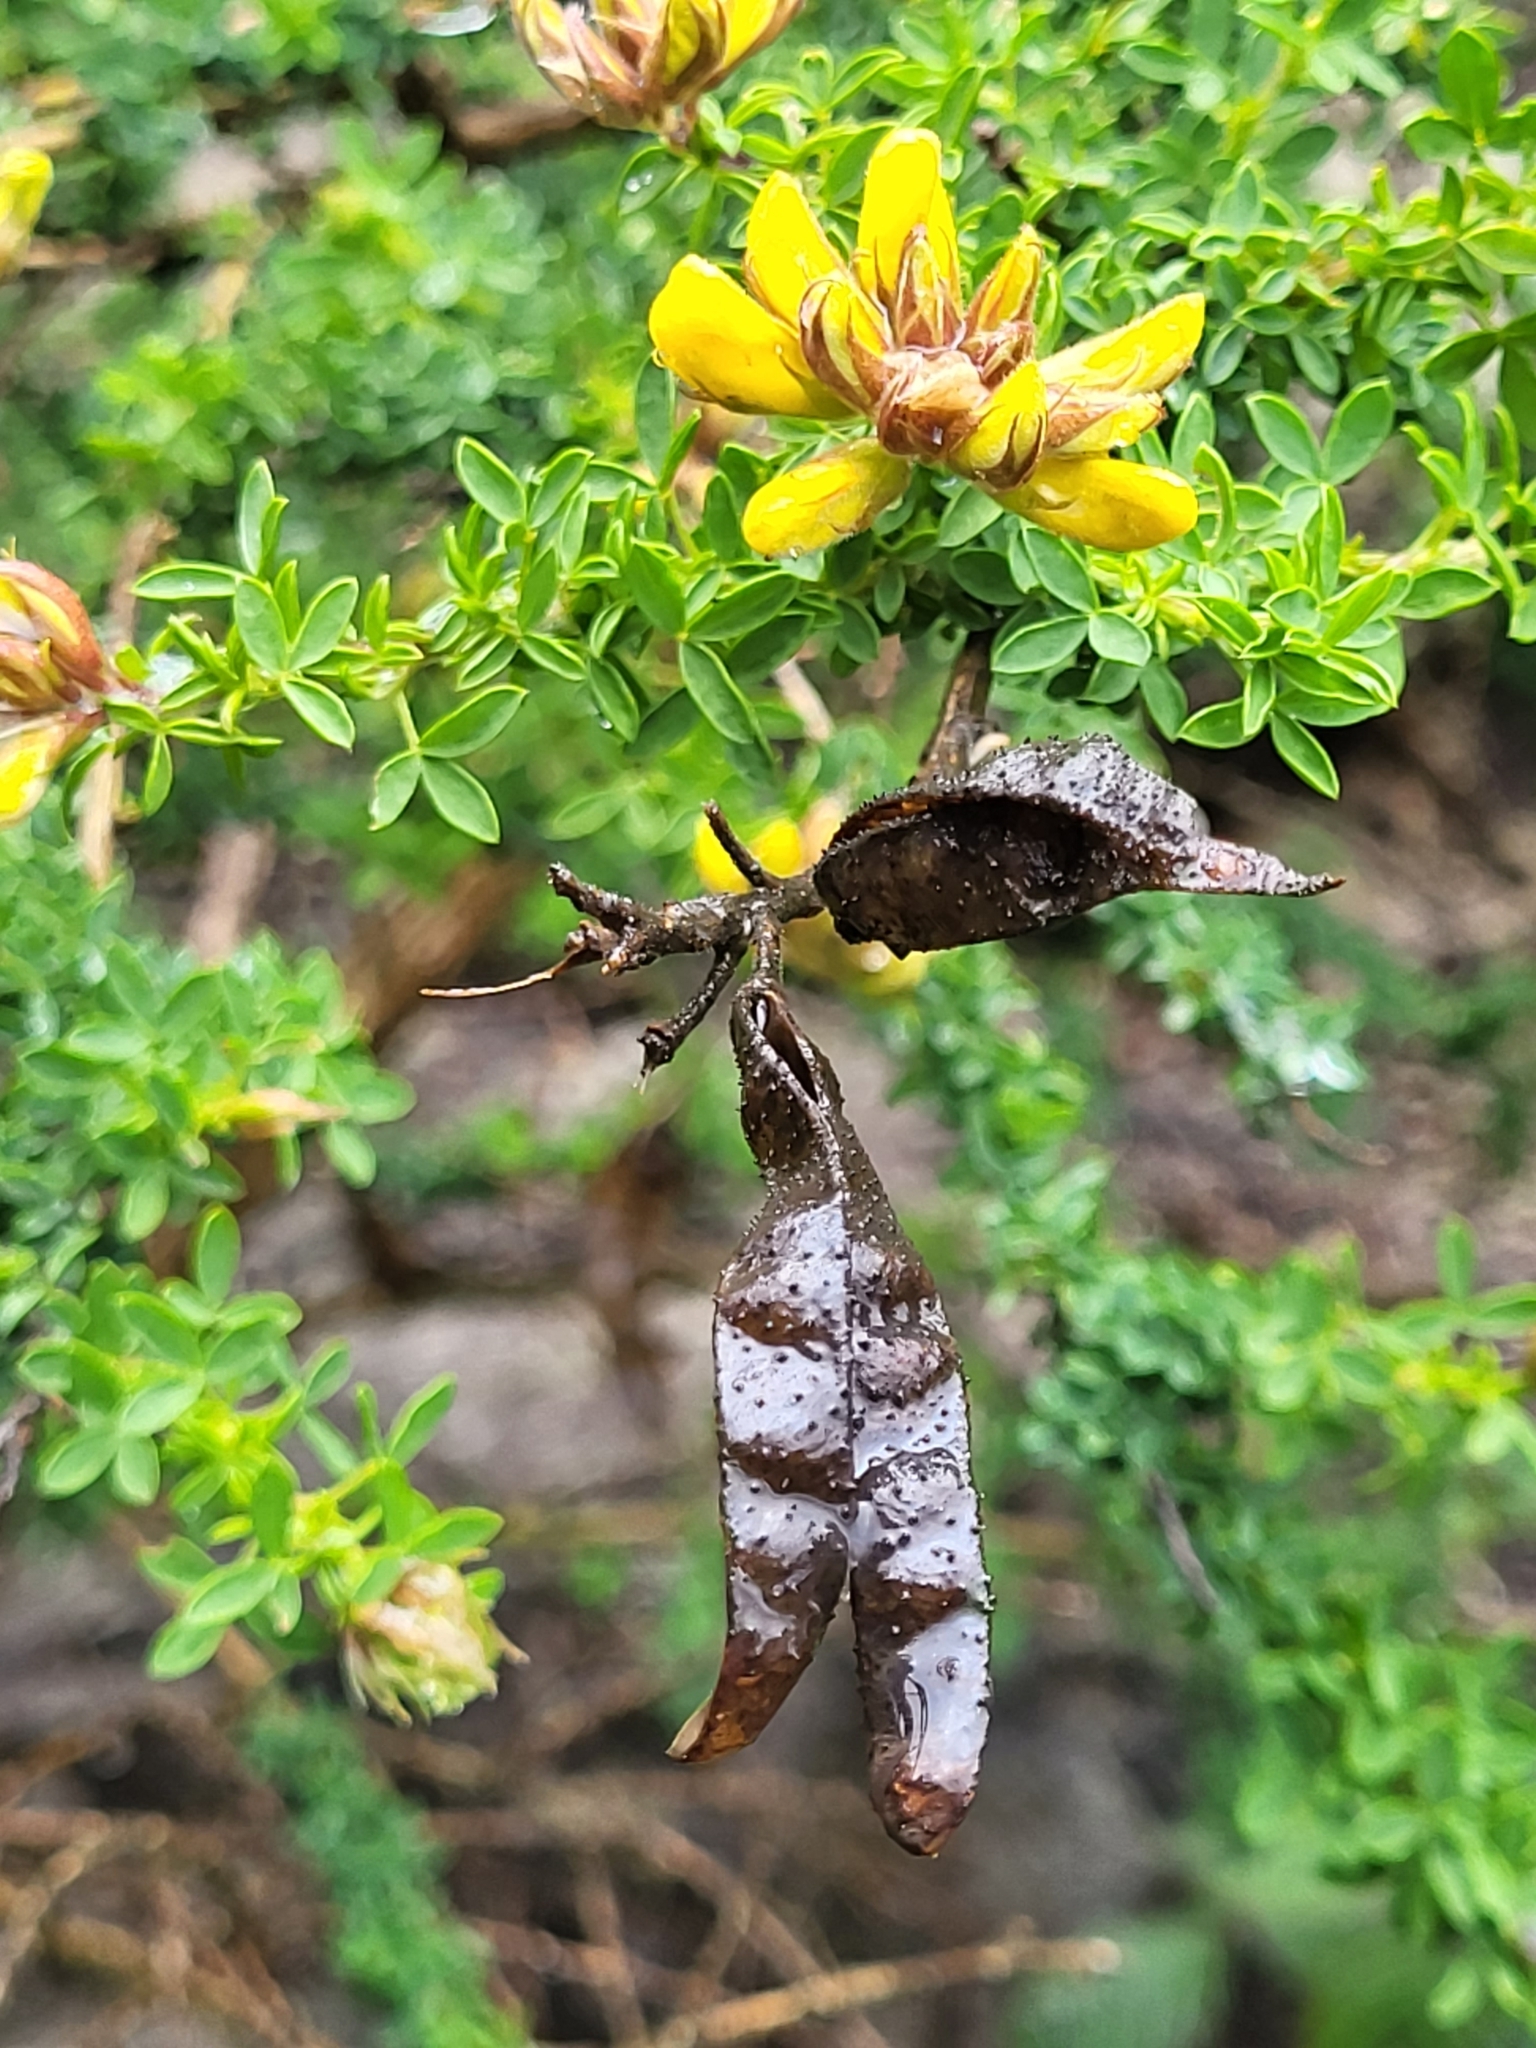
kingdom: Plantae
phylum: Tracheophyta
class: Magnoliopsida
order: Fabales
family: Fabaceae
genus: Adenocarpus
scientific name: Adenocarpus foliolosus
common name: Canary island flatpod
